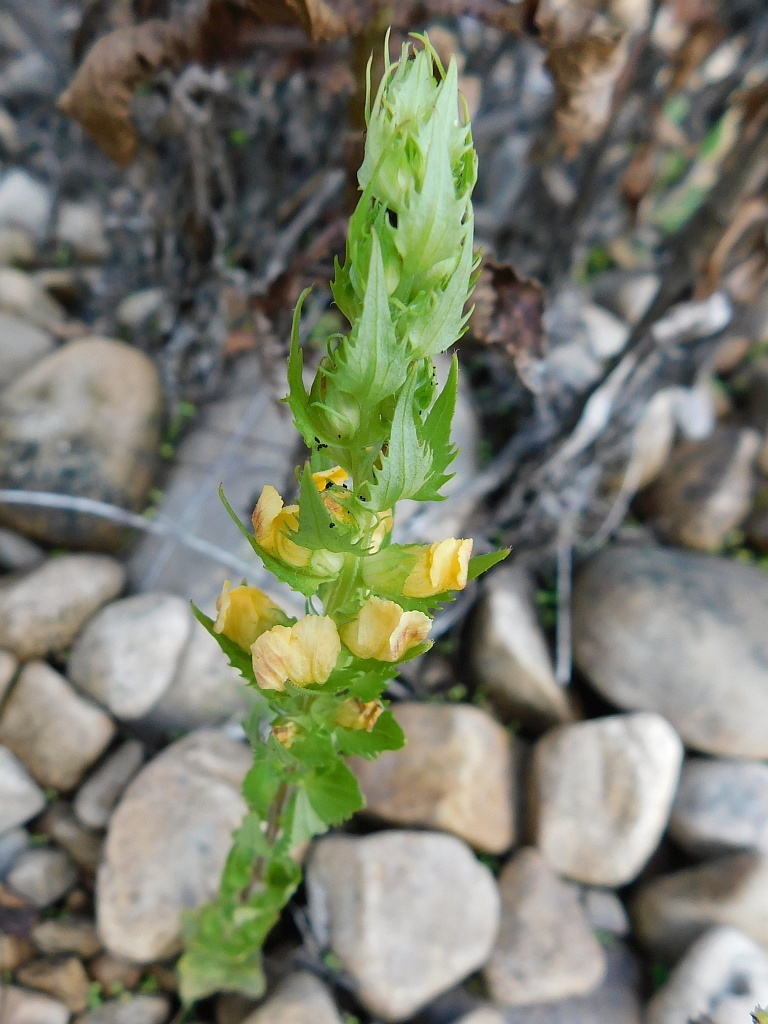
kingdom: Plantae
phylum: Tracheophyta
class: Magnoliopsida
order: Lamiales
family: Orobanchaceae
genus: Alectra
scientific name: Alectra sessiliflora
